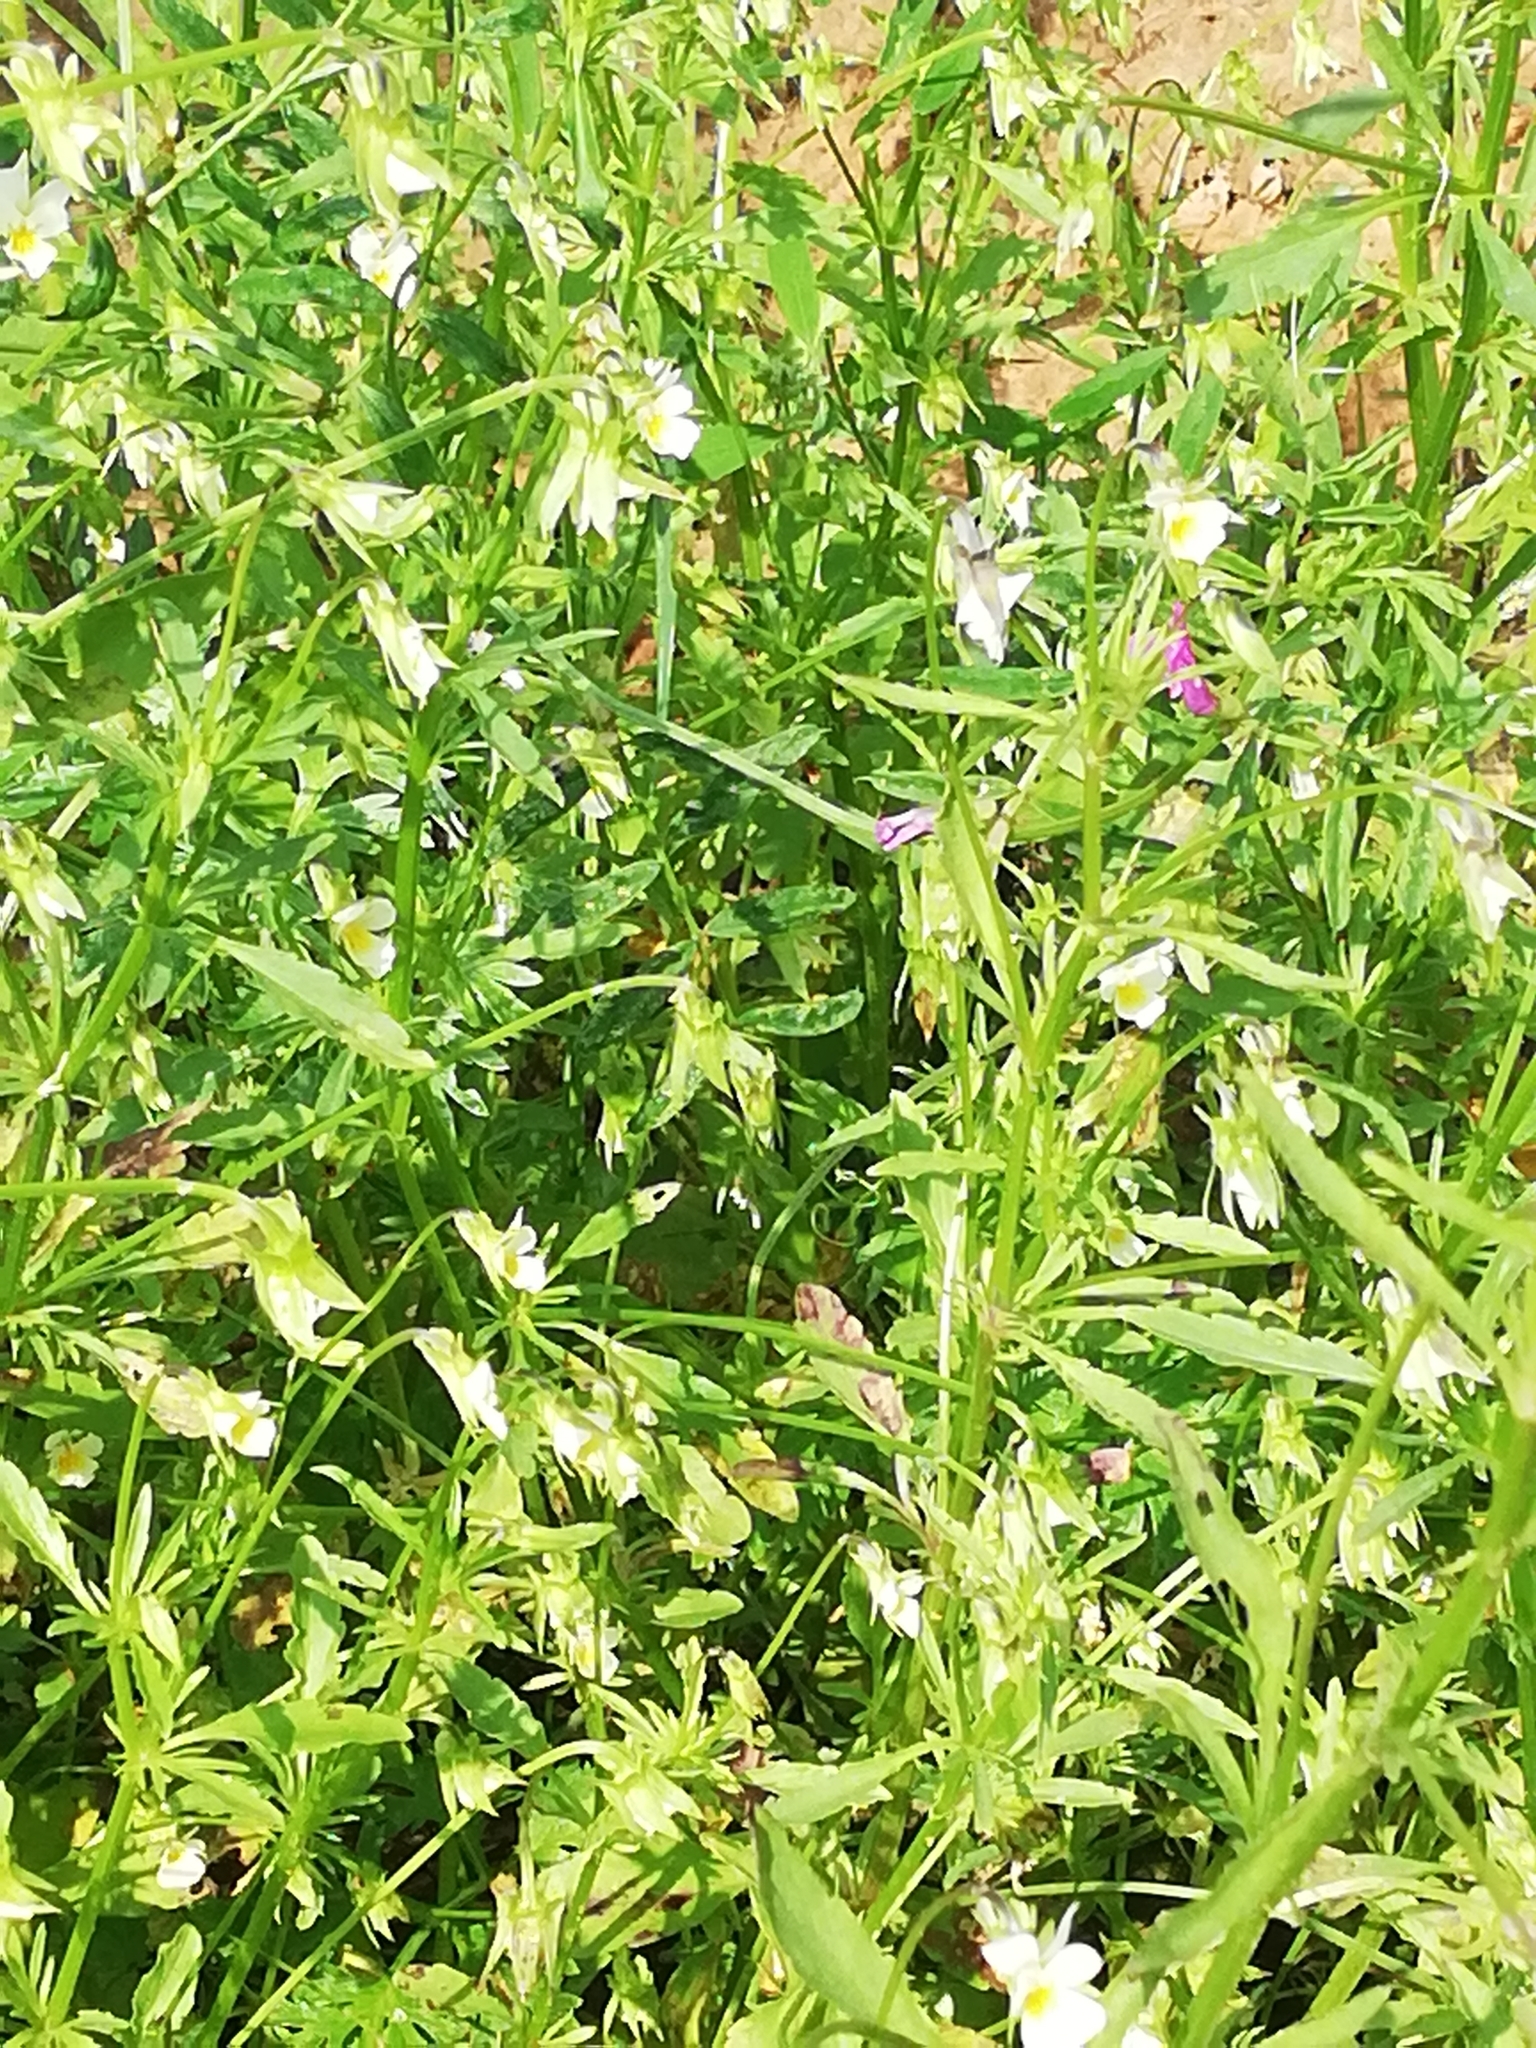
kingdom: Plantae
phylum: Tracheophyta
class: Magnoliopsida
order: Malpighiales
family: Violaceae
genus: Viola
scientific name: Viola arvensis
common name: Field pansy
